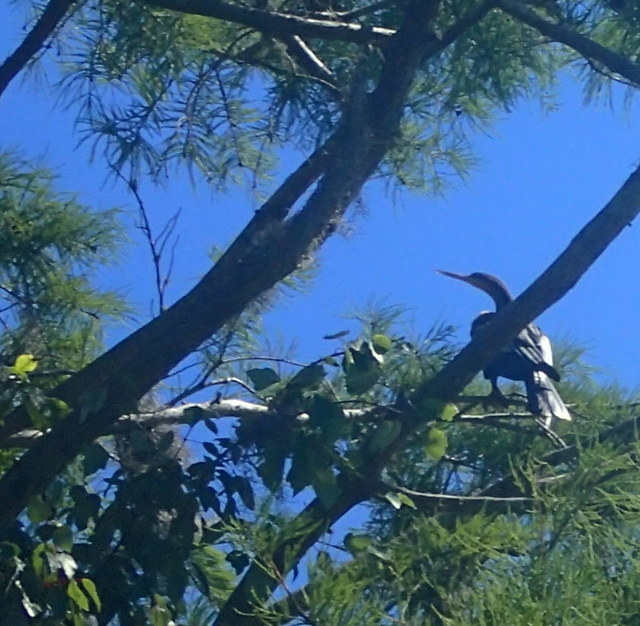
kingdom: Animalia
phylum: Chordata
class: Aves
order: Suliformes
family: Anhingidae
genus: Anhinga
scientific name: Anhinga anhinga
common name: Anhinga
